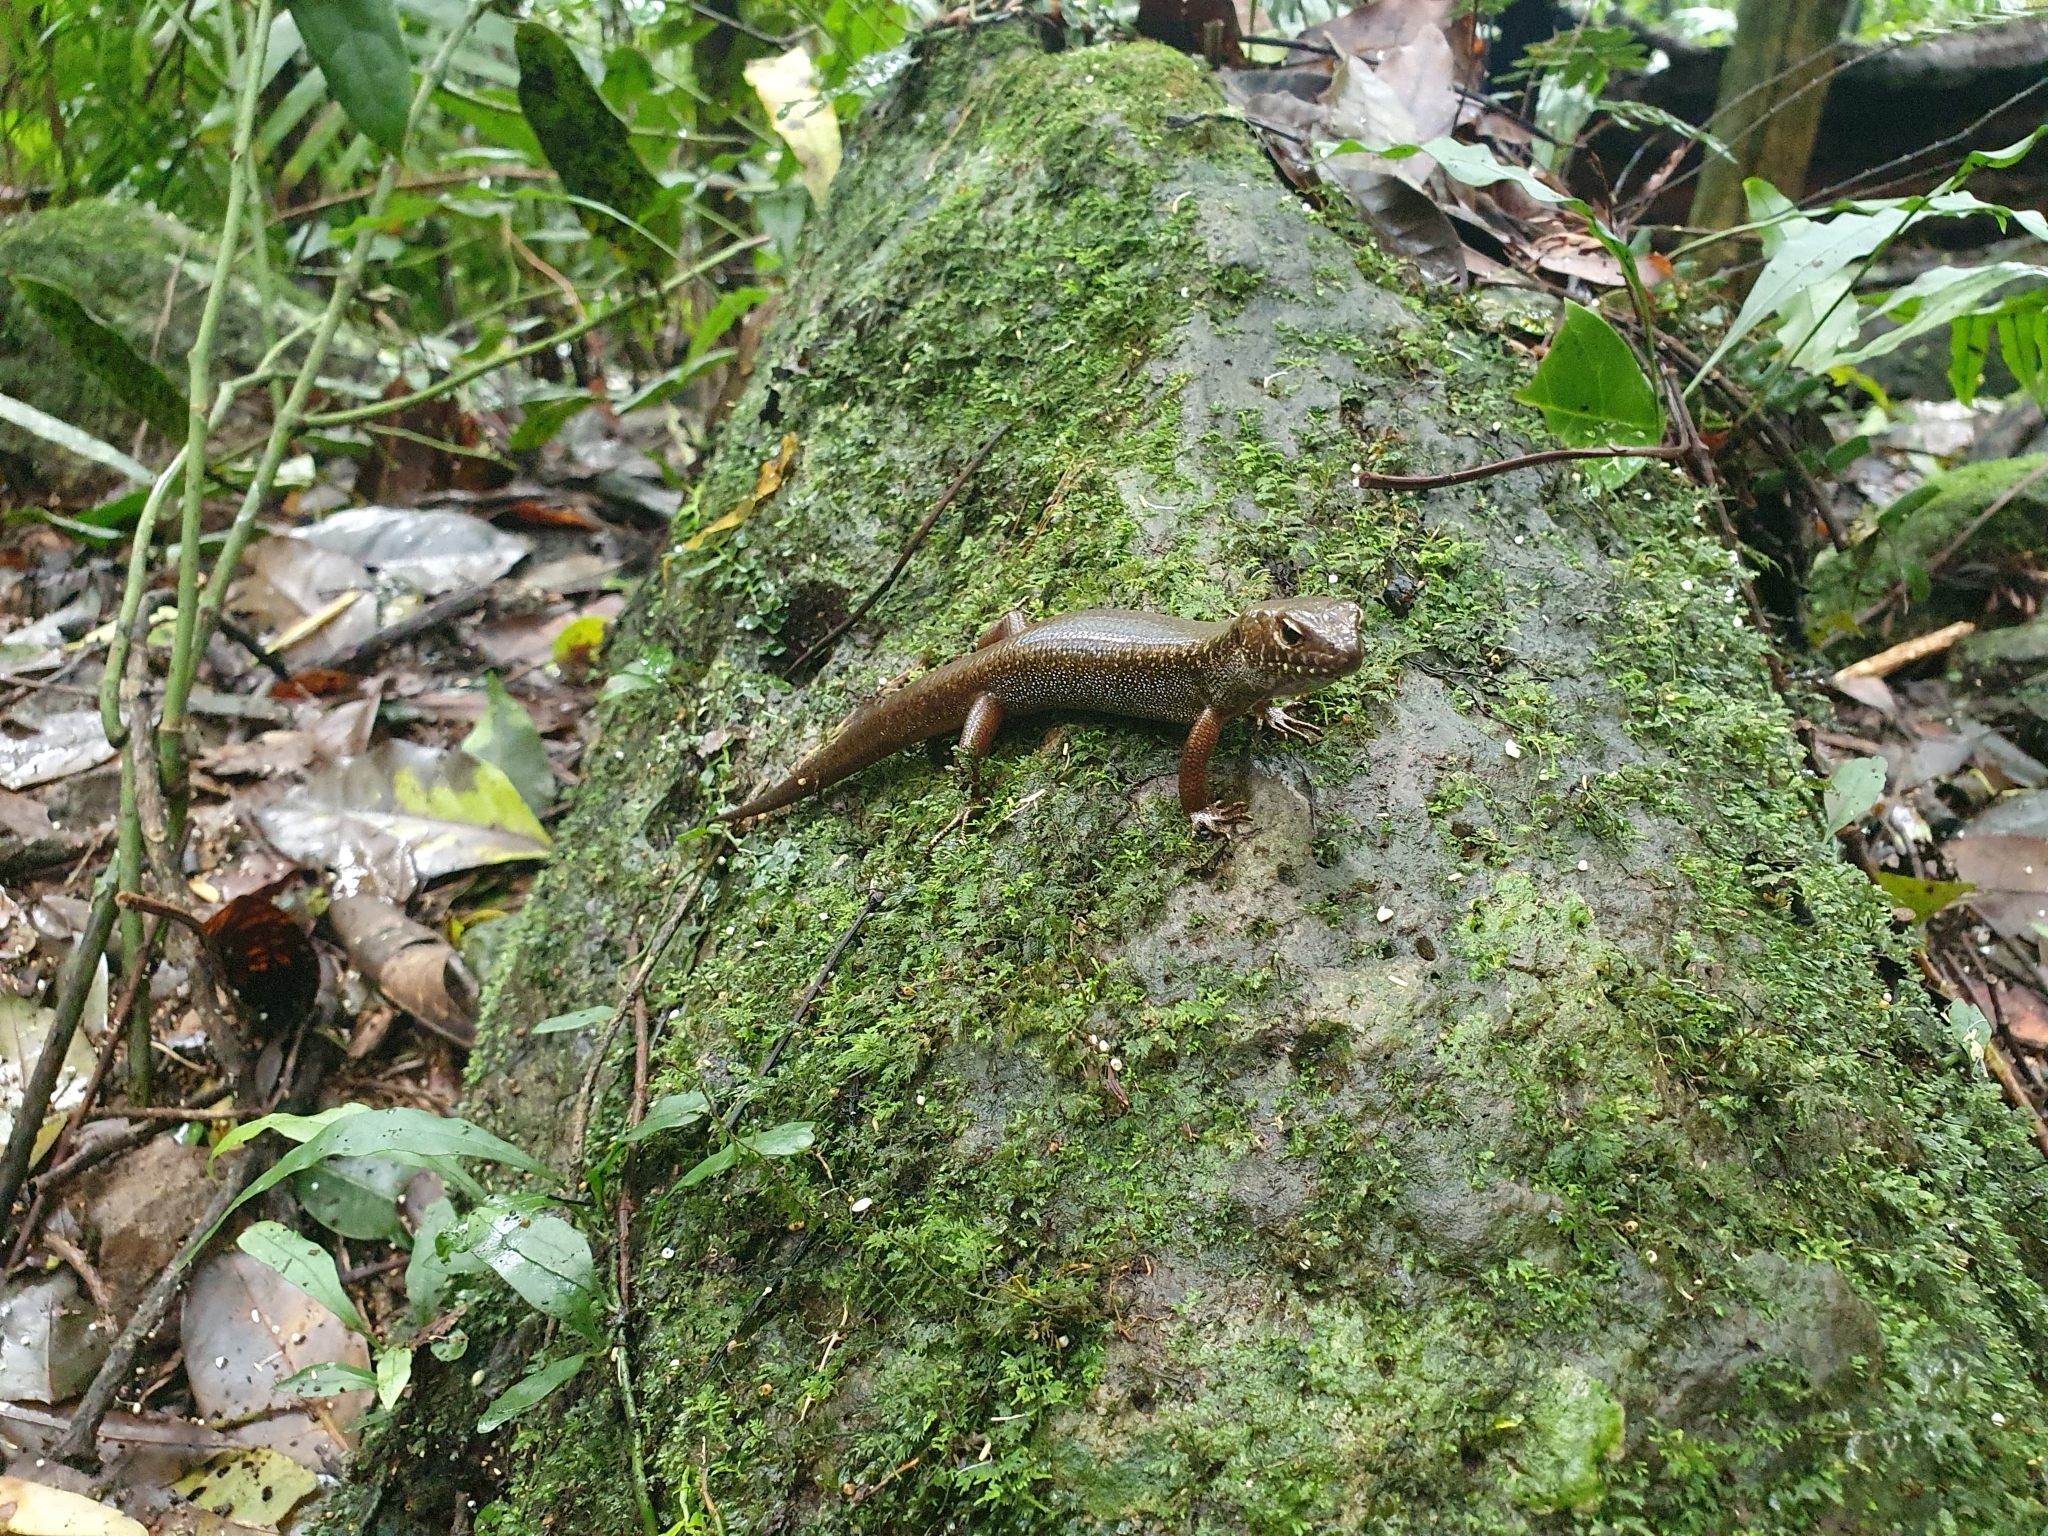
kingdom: Animalia
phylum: Chordata
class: Squamata
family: Scincidae
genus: Silvascincus
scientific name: Silvascincus murrayi
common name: Blue-speckled forest-skink
